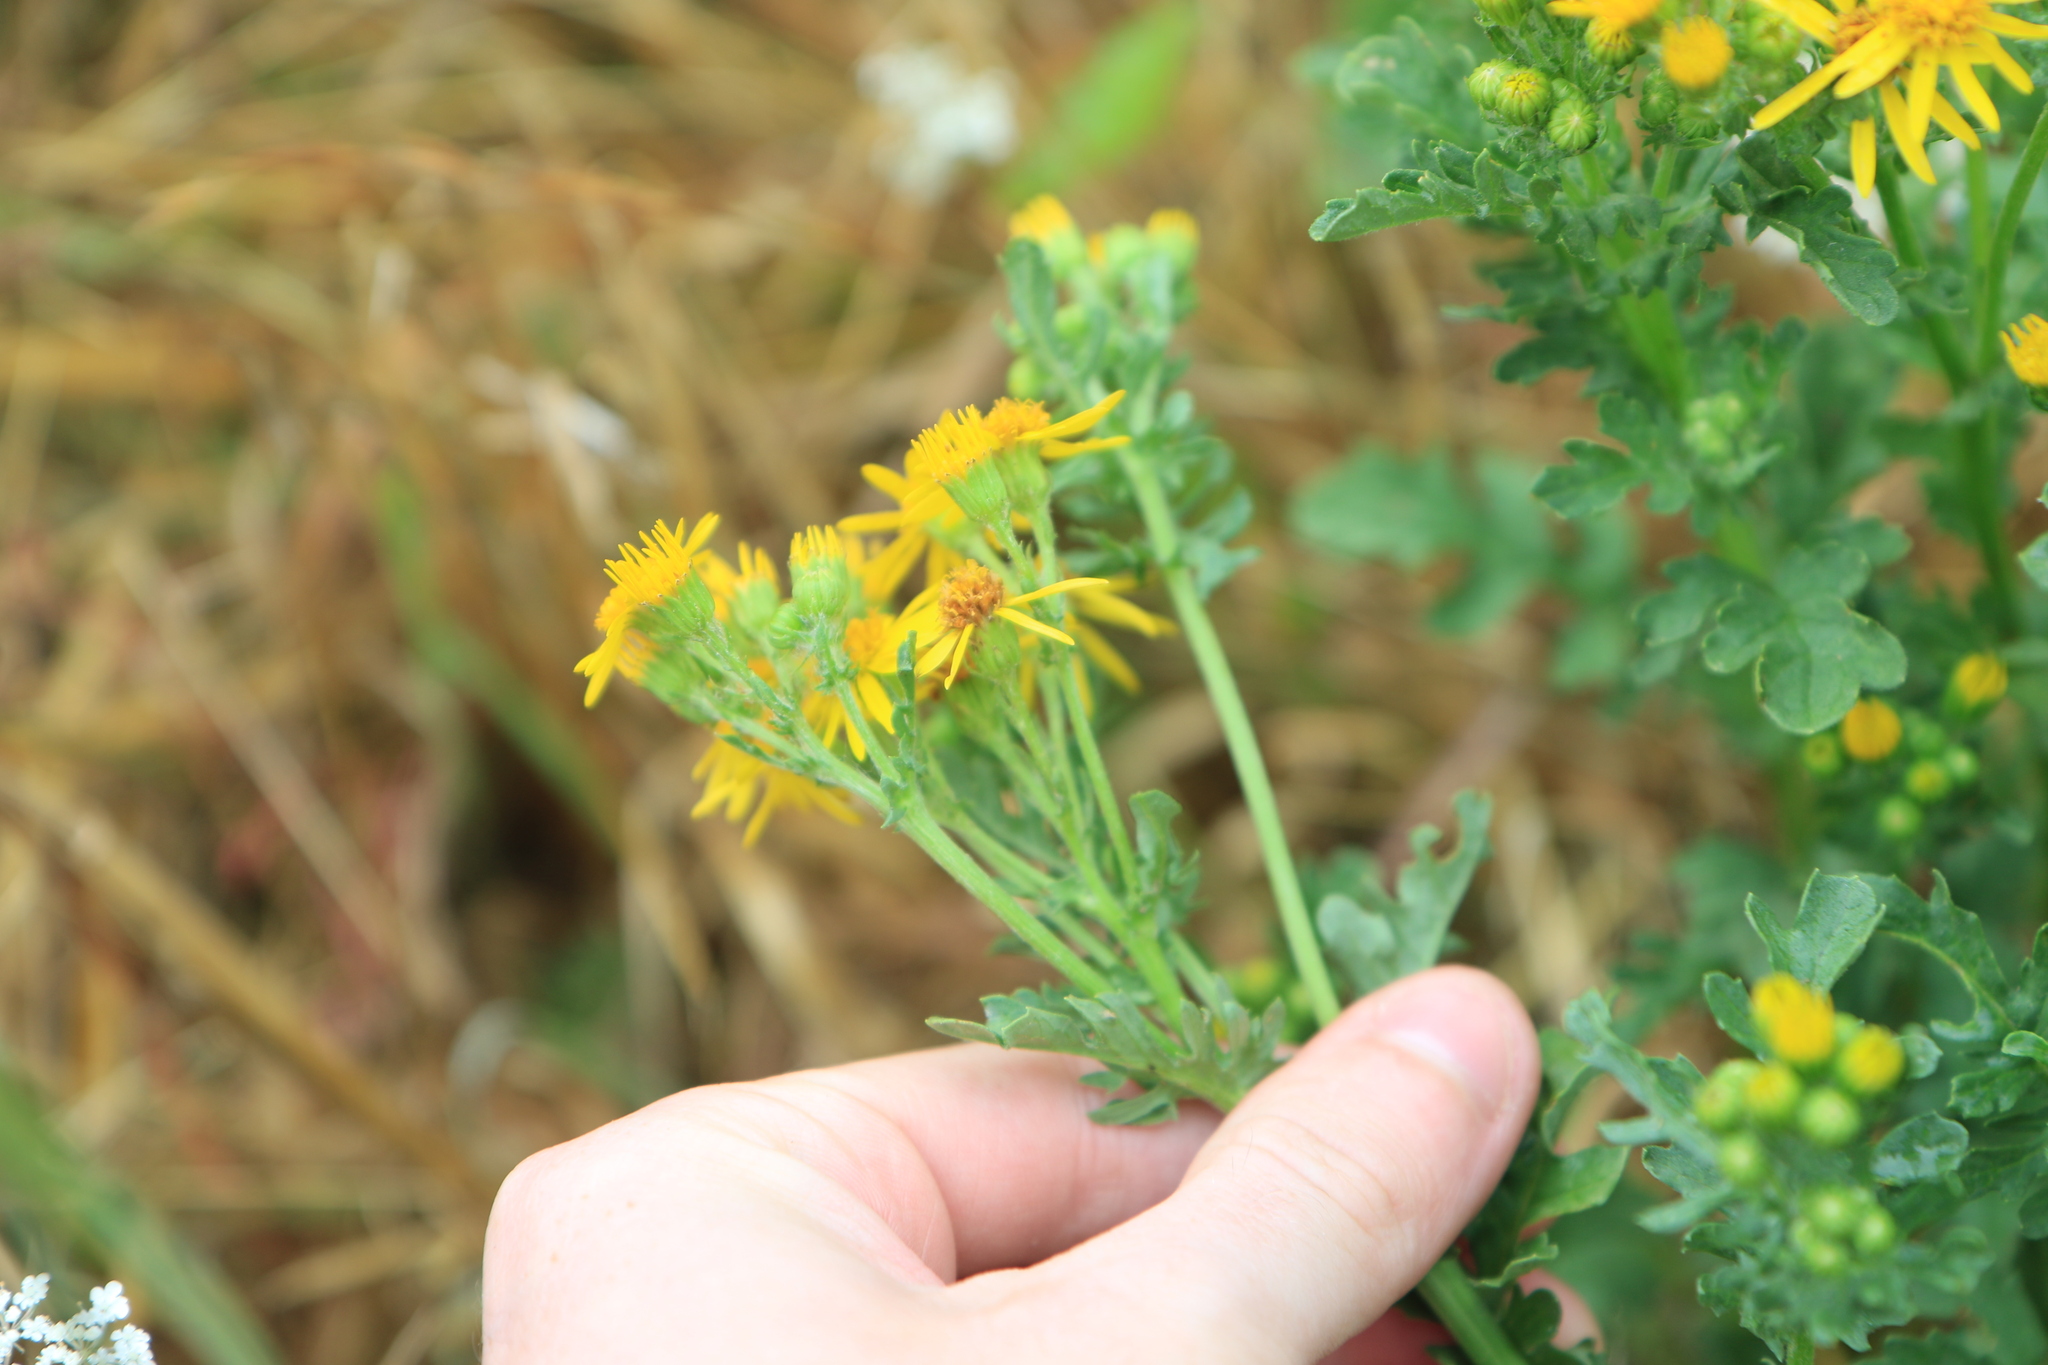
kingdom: Plantae
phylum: Tracheophyta
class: Magnoliopsida
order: Asterales
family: Asteraceae
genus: Jacobaea
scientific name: Jacobaea vulgaris
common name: Stinking willie
